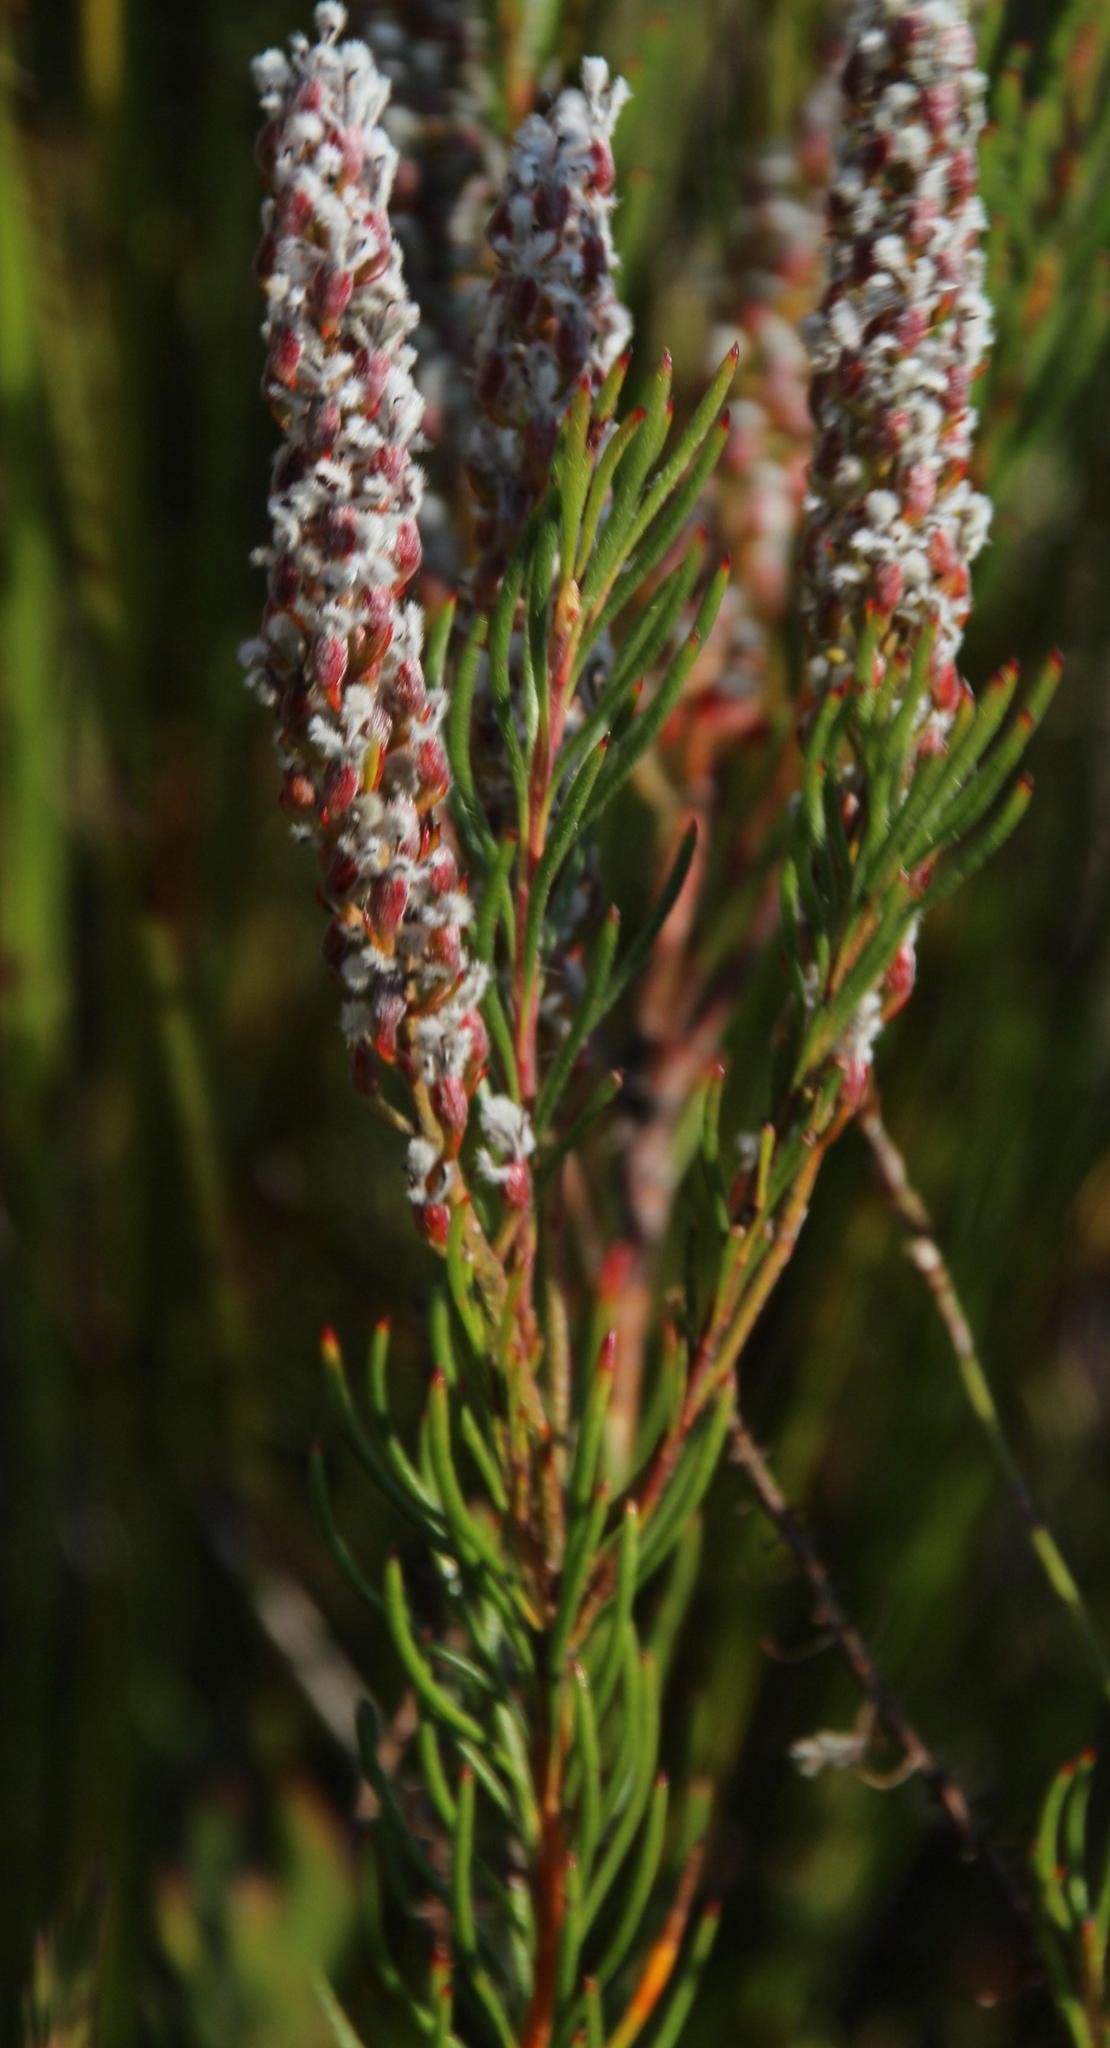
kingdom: Plantae
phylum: Tracheophyta
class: Magnoliopsida
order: Proteales
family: Proteaceae
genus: Spatalla
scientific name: Spatalla curvifolia
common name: White-stalked spoon
